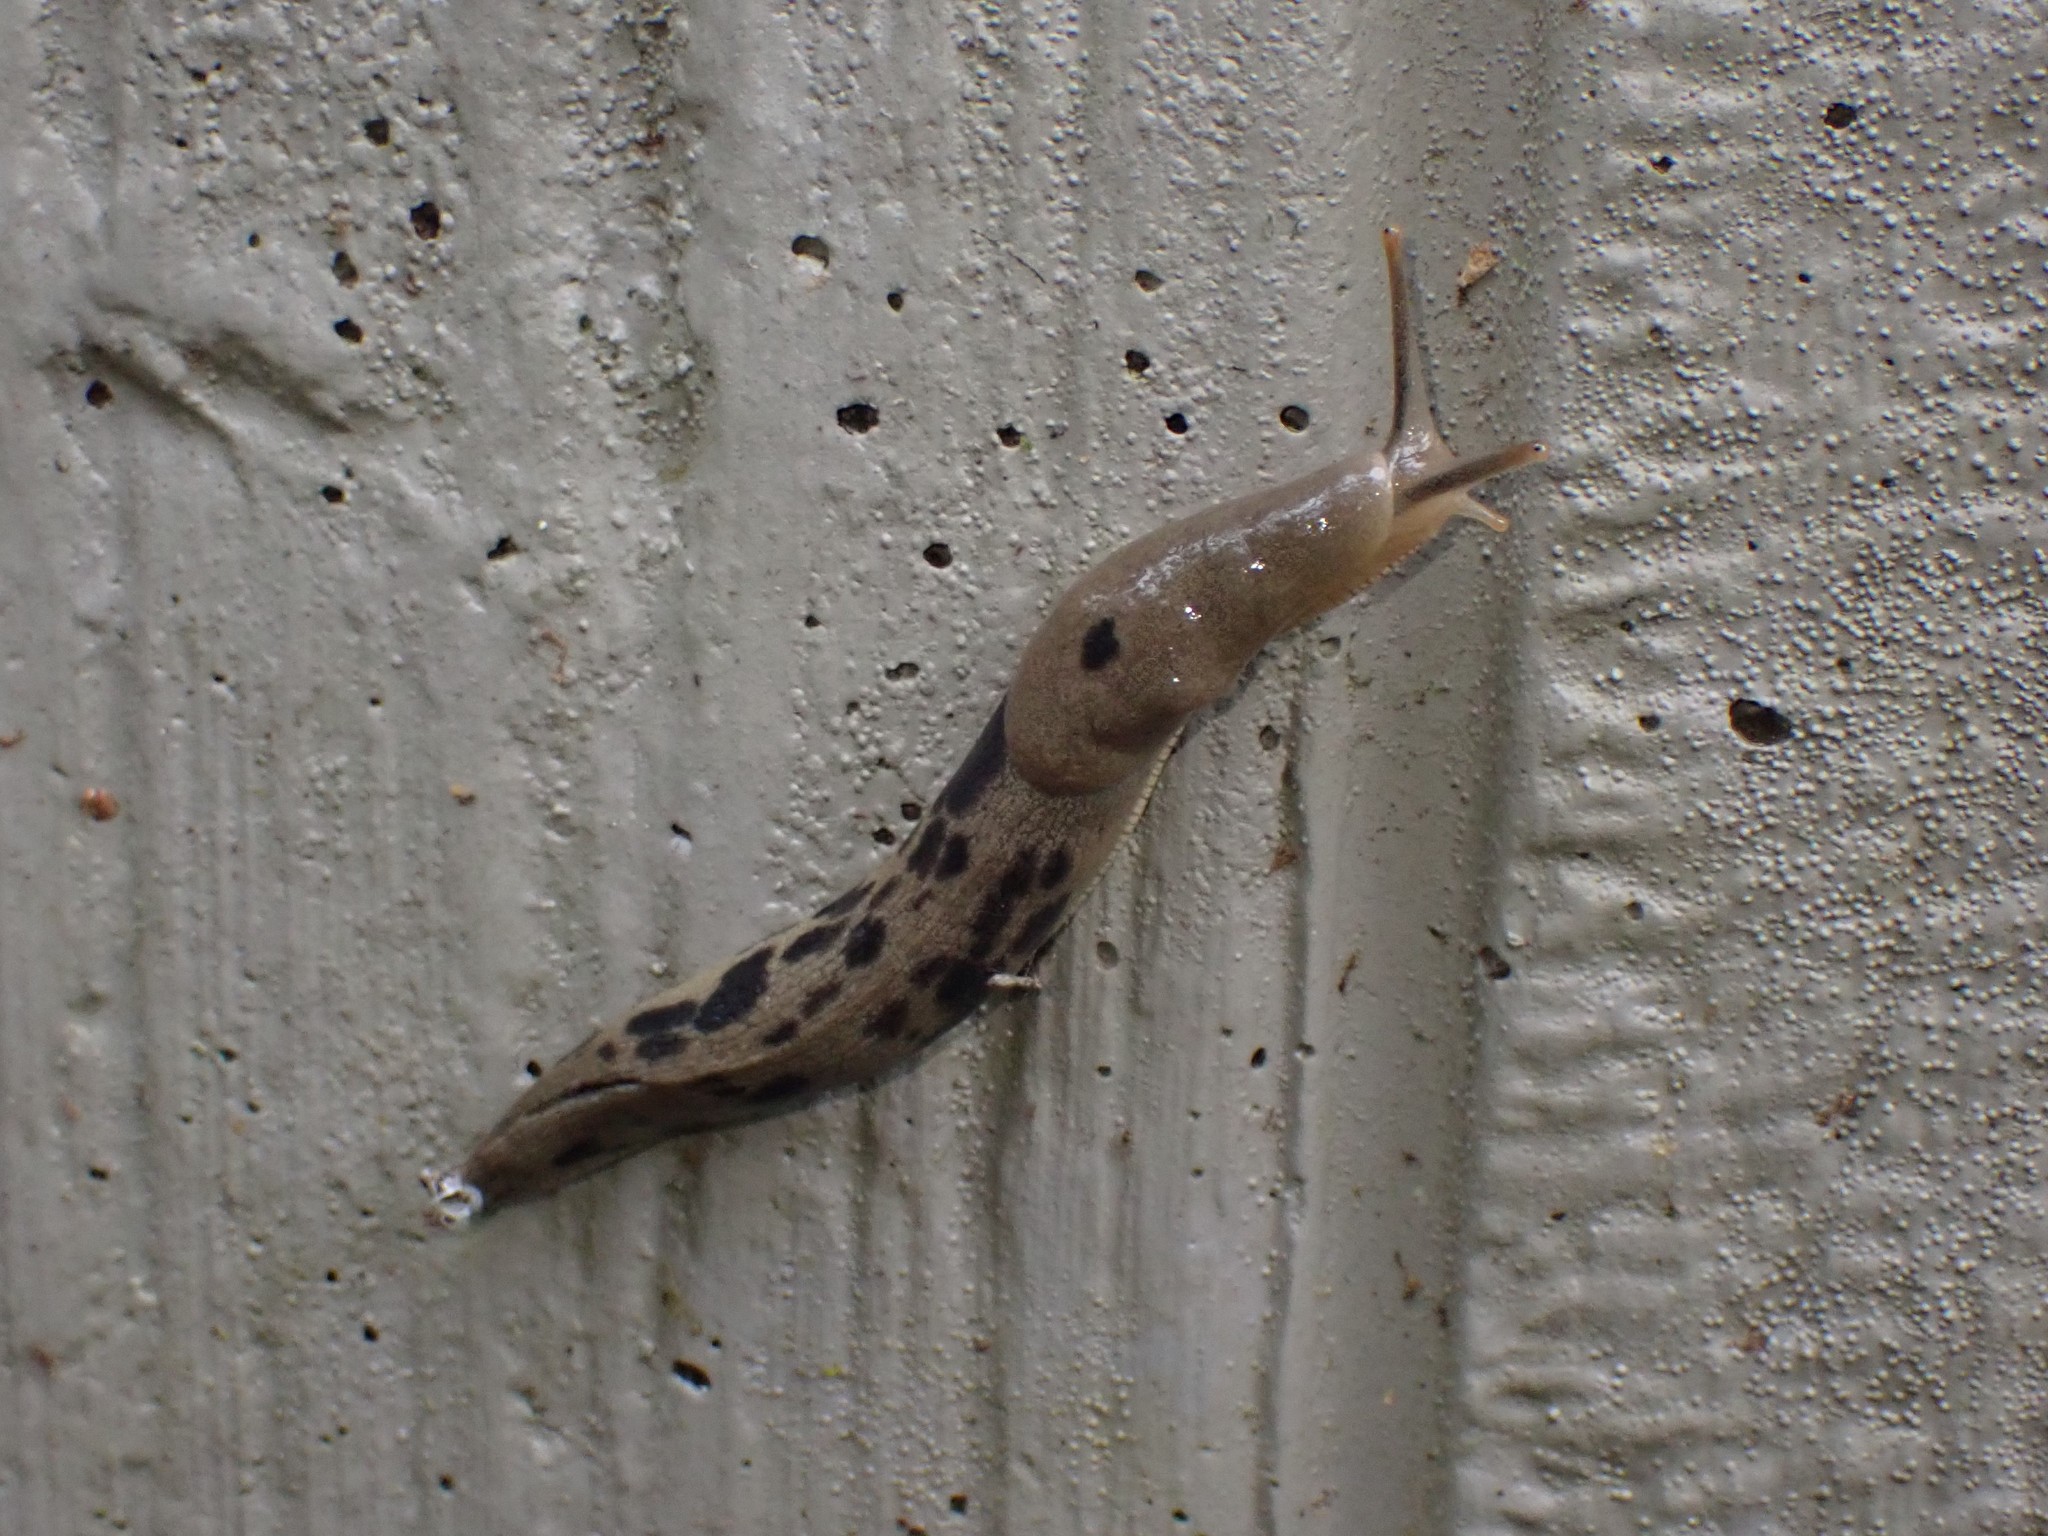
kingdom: Animalia
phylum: Mollusca
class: Gastropoda
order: Stylommatophora
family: Ariolimacidae
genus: Ariolimax
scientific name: Ariolimax columbianus
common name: Pacific banana slug
